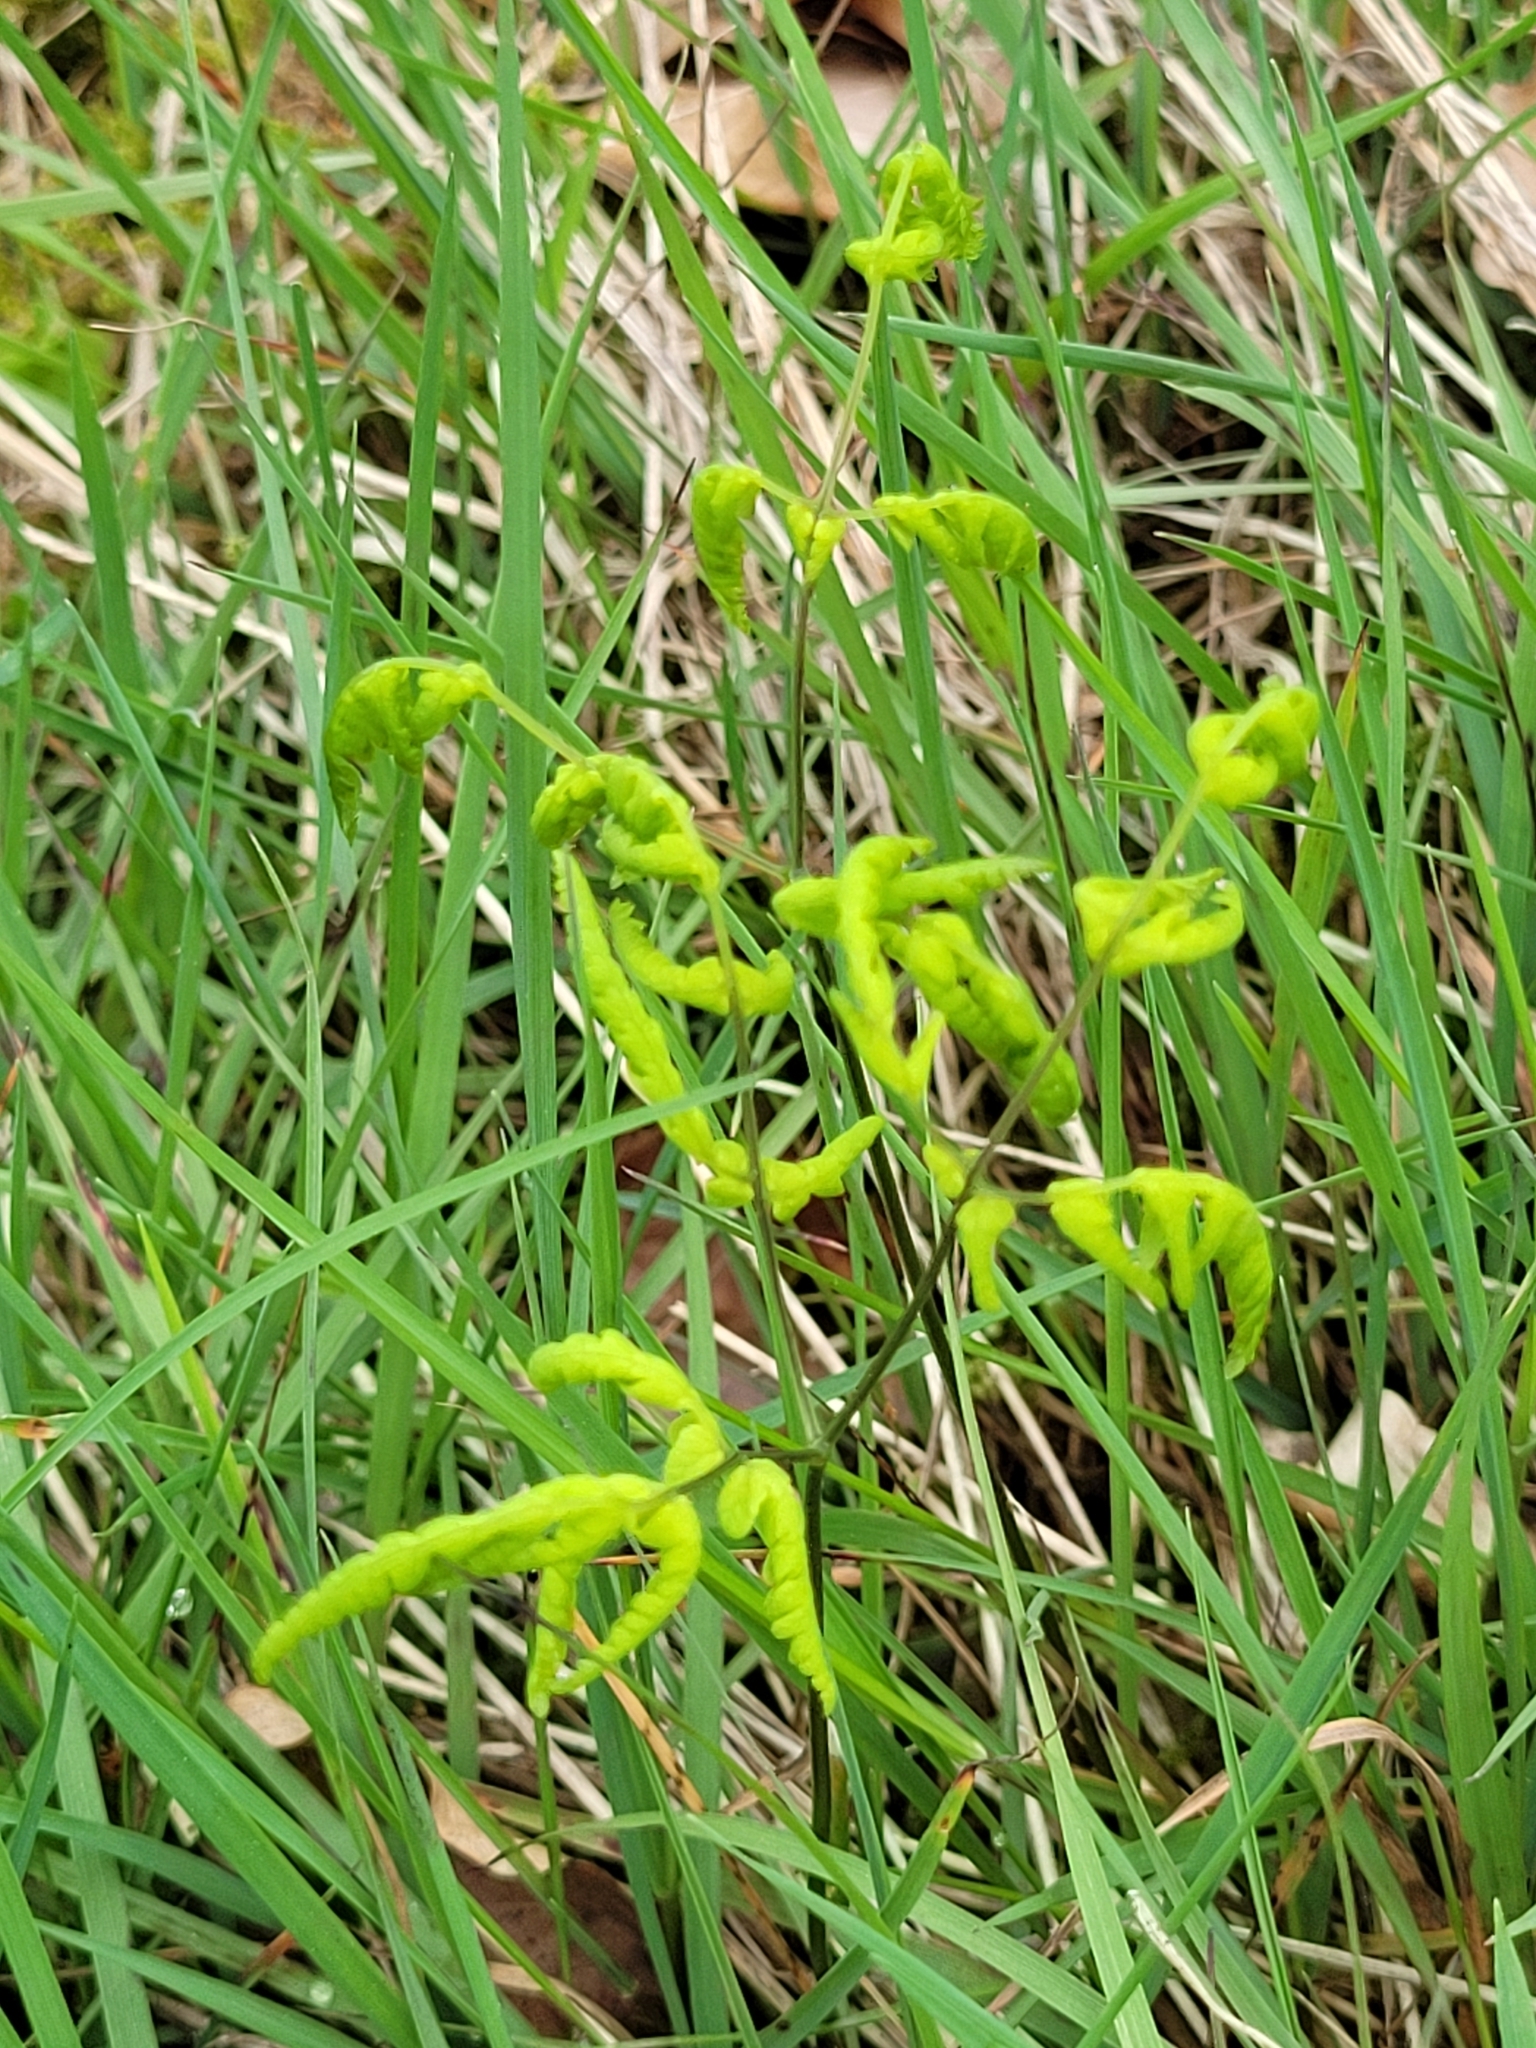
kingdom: Plantae
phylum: Tracheophyta
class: Polypodiopsida
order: Polypodiales
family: Cystopteridaceae
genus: Gymnocarpium
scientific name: Gymnocarpium dryopteris
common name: Oak fern
